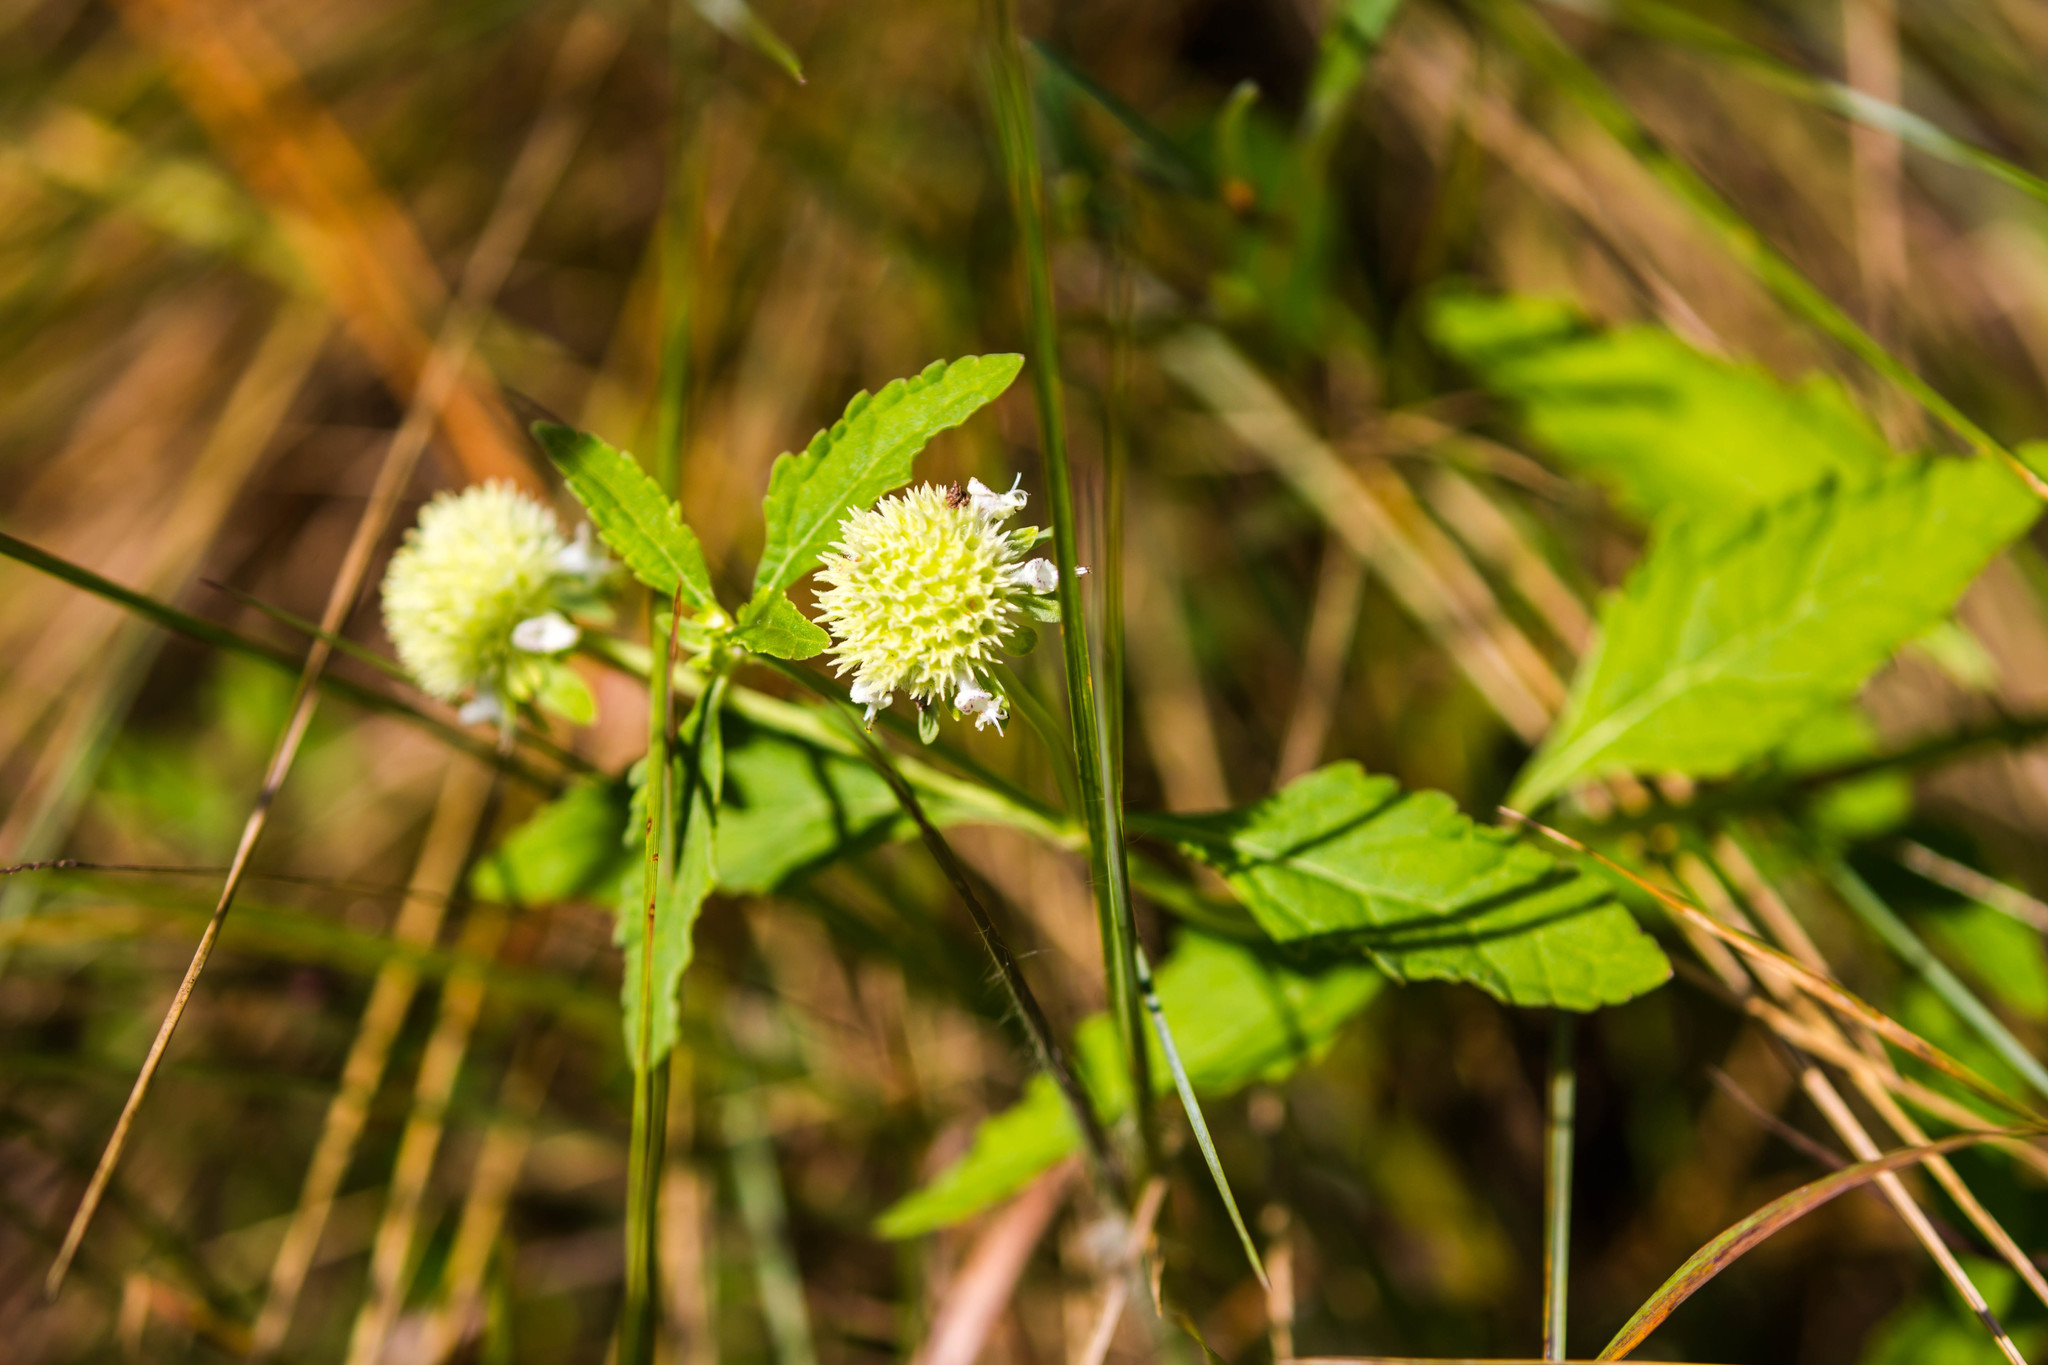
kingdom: Plantae
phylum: Tracheophyta
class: Magnoliopsida
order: Lamiales
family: Lamiaceae
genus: Hyptis
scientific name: Hyptis alata
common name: Cluster bush-mint
